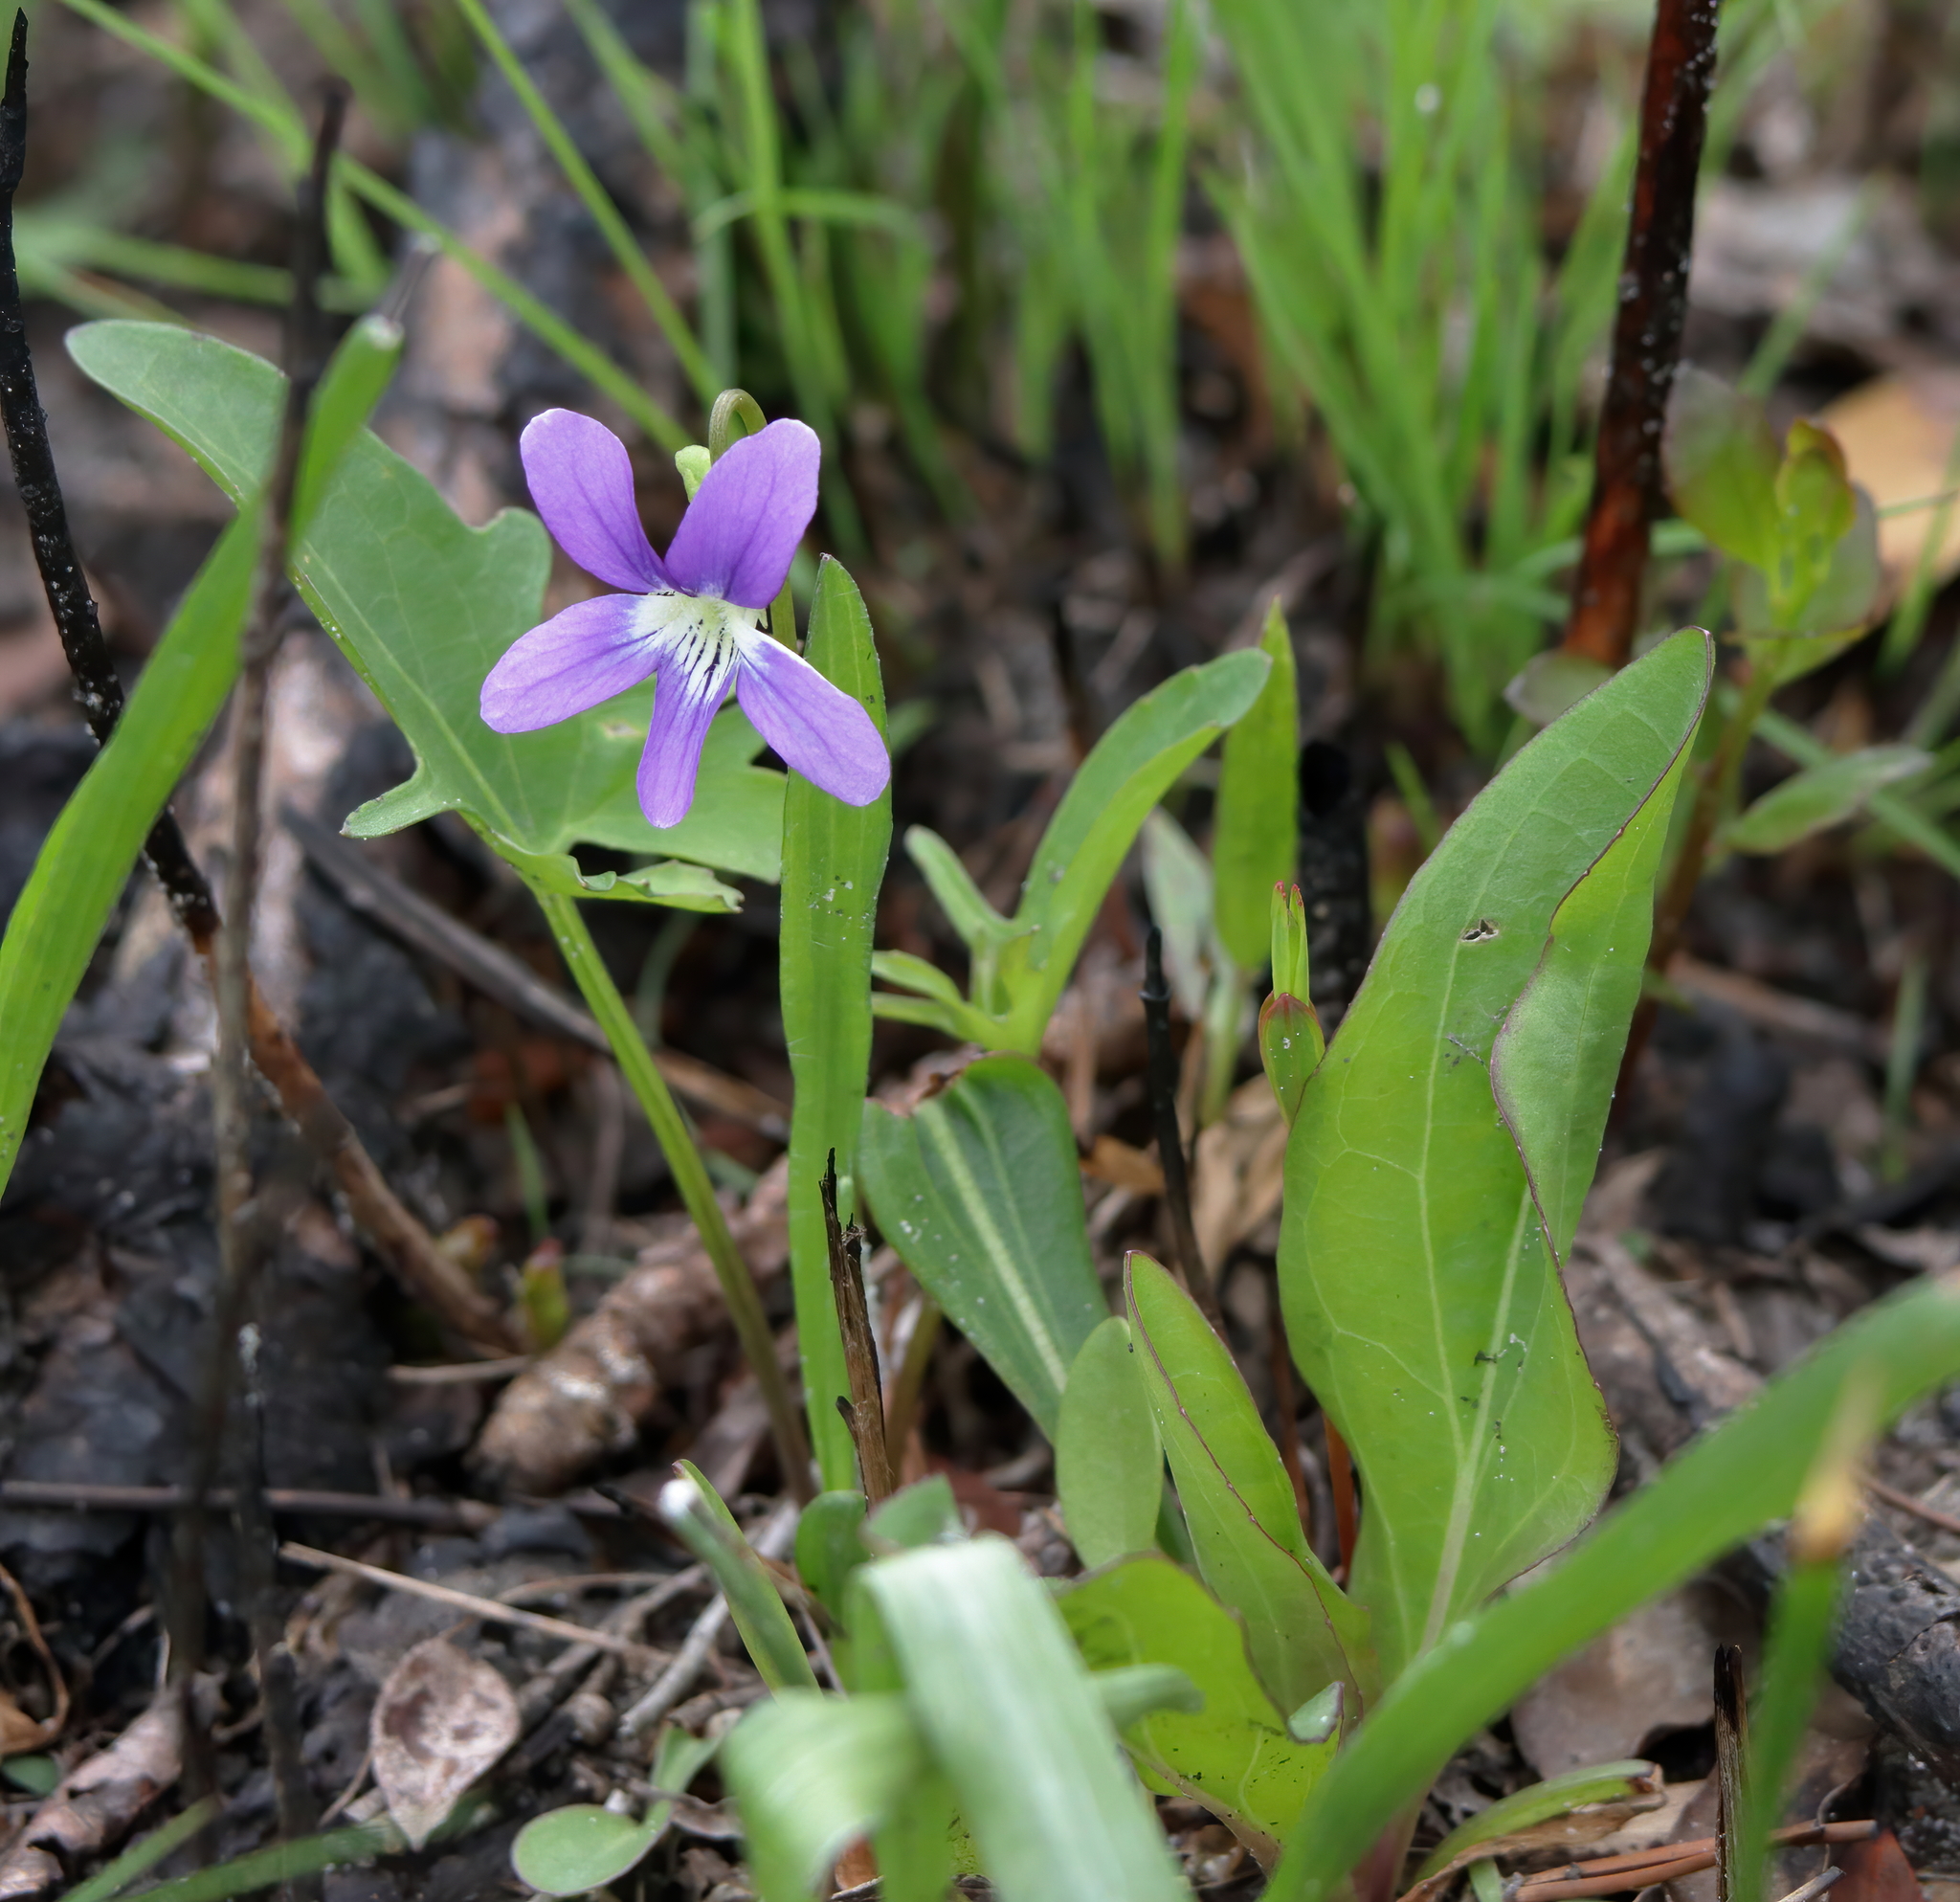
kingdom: Plantae
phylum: Tracheophyta
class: Magnoliopsida
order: Malpighiales
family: Violaceae
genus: Viola
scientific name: Viola septemloba
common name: Southern coast violet
